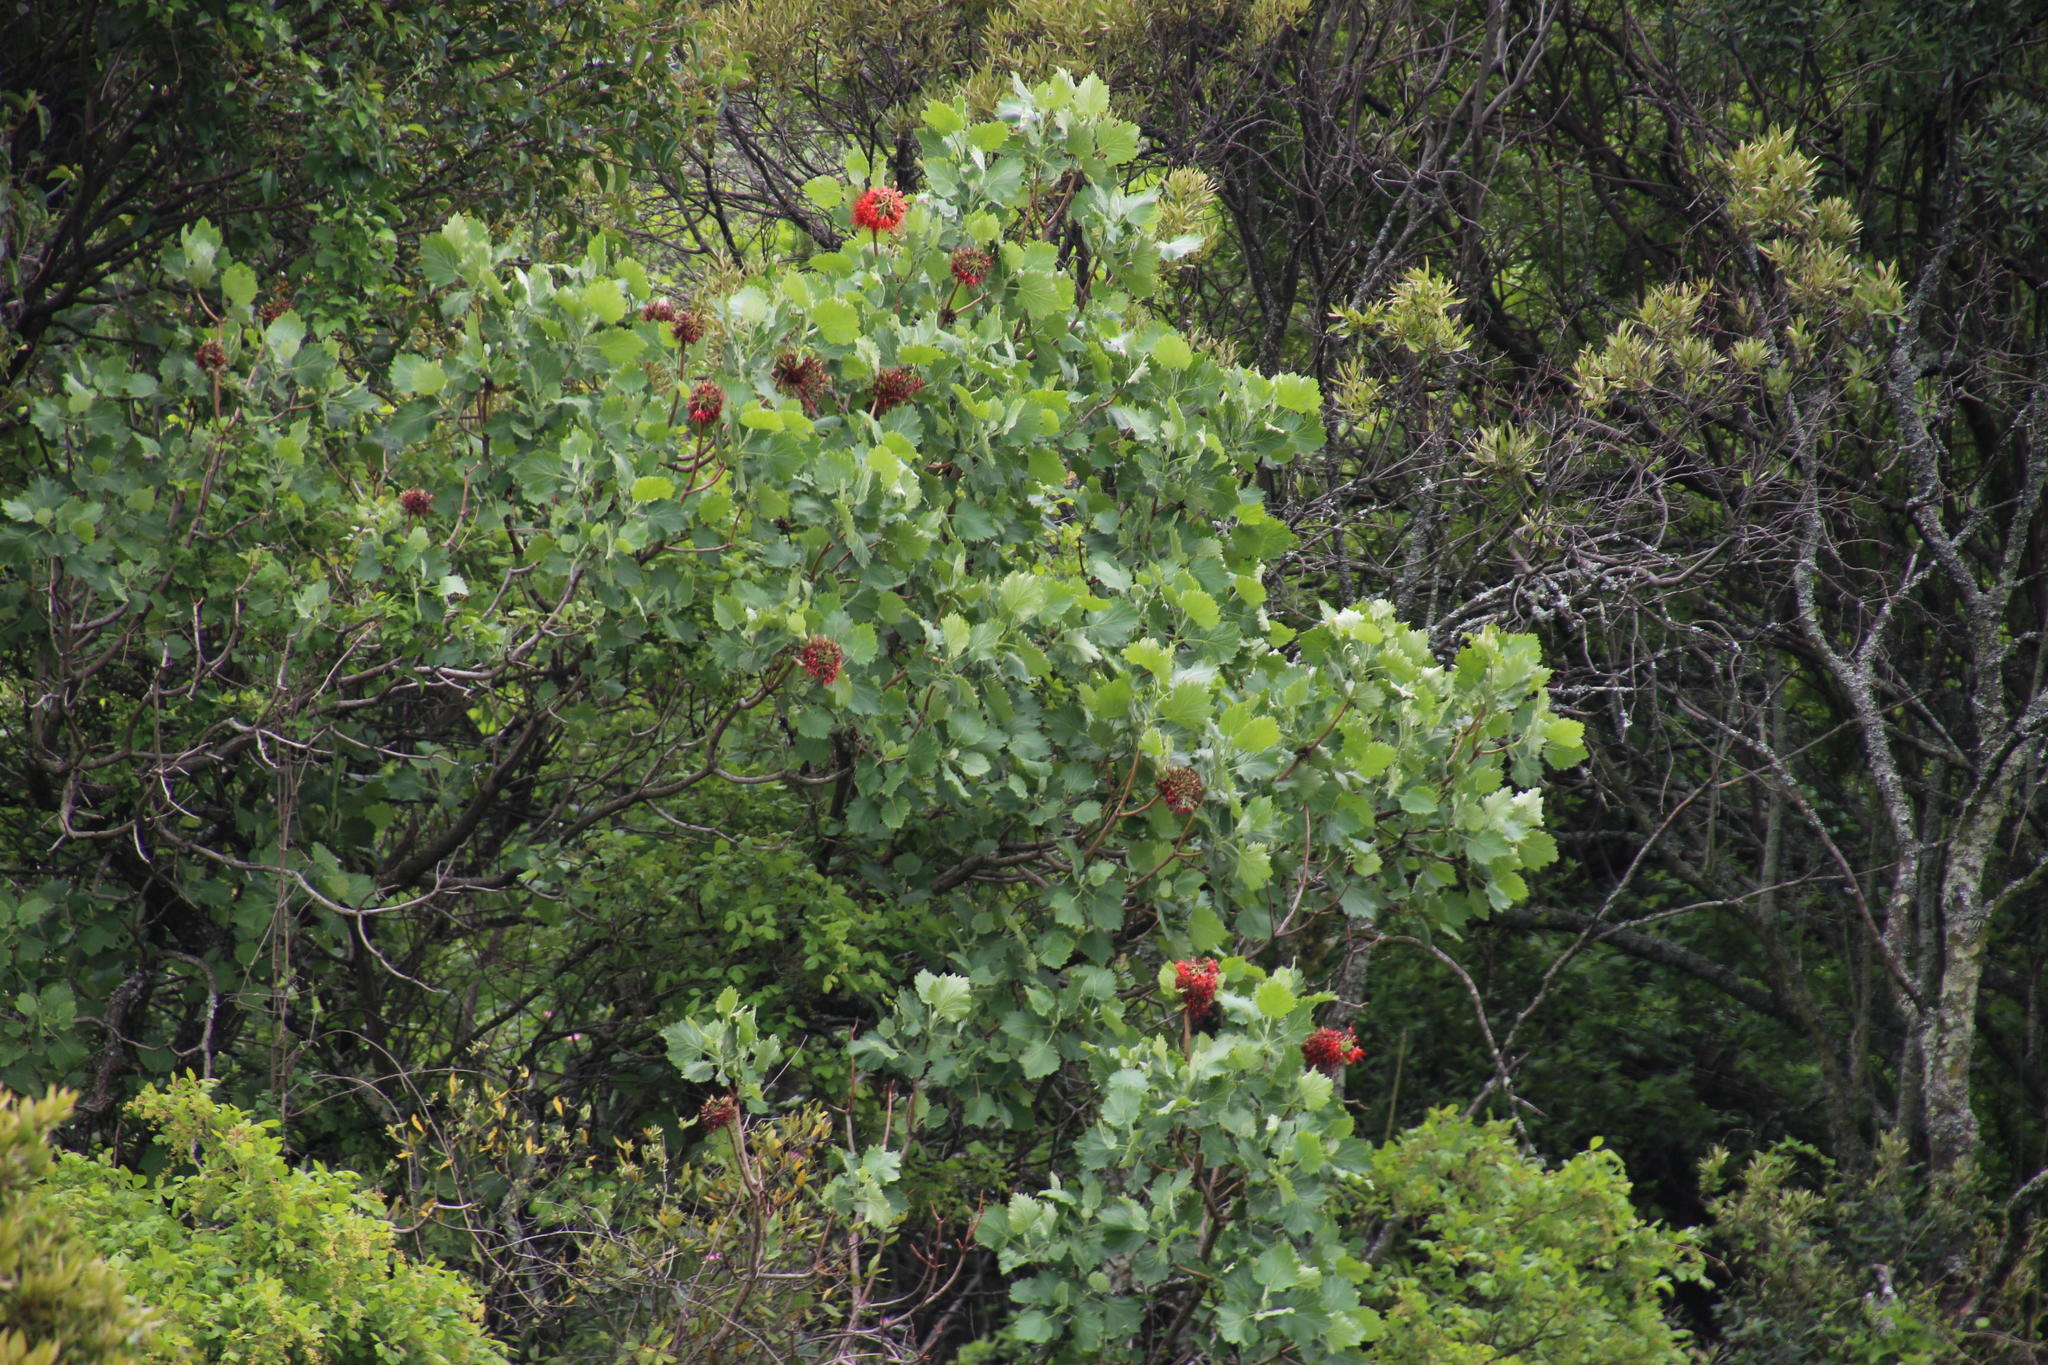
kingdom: Plantae
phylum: Tracheophyta
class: Magnoliopsida
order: Geraniales
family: Francoaceae
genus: Greyia
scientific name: Greyia sutherlandii
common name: Glossy bottlebrush
